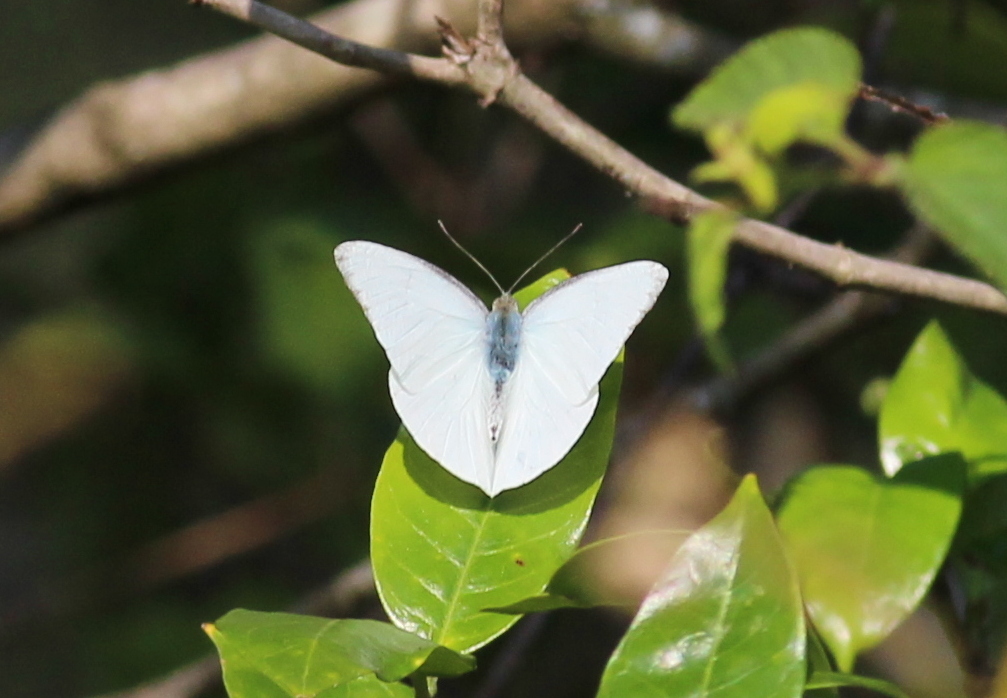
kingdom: Animalia
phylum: Arthropoda
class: Insecta
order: Lepidoptera
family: Pieridae
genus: Appias
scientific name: Appias albina
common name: Common albatross
